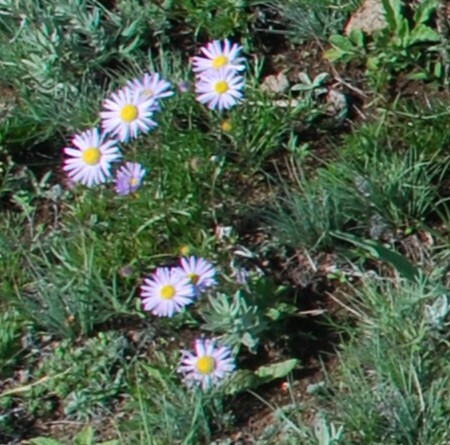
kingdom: Plantae
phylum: Tracheophyta
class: Magnoliopsida
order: Asterales
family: Asteraceae
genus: Aster
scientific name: Aster alpinus
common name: Alpine aster
